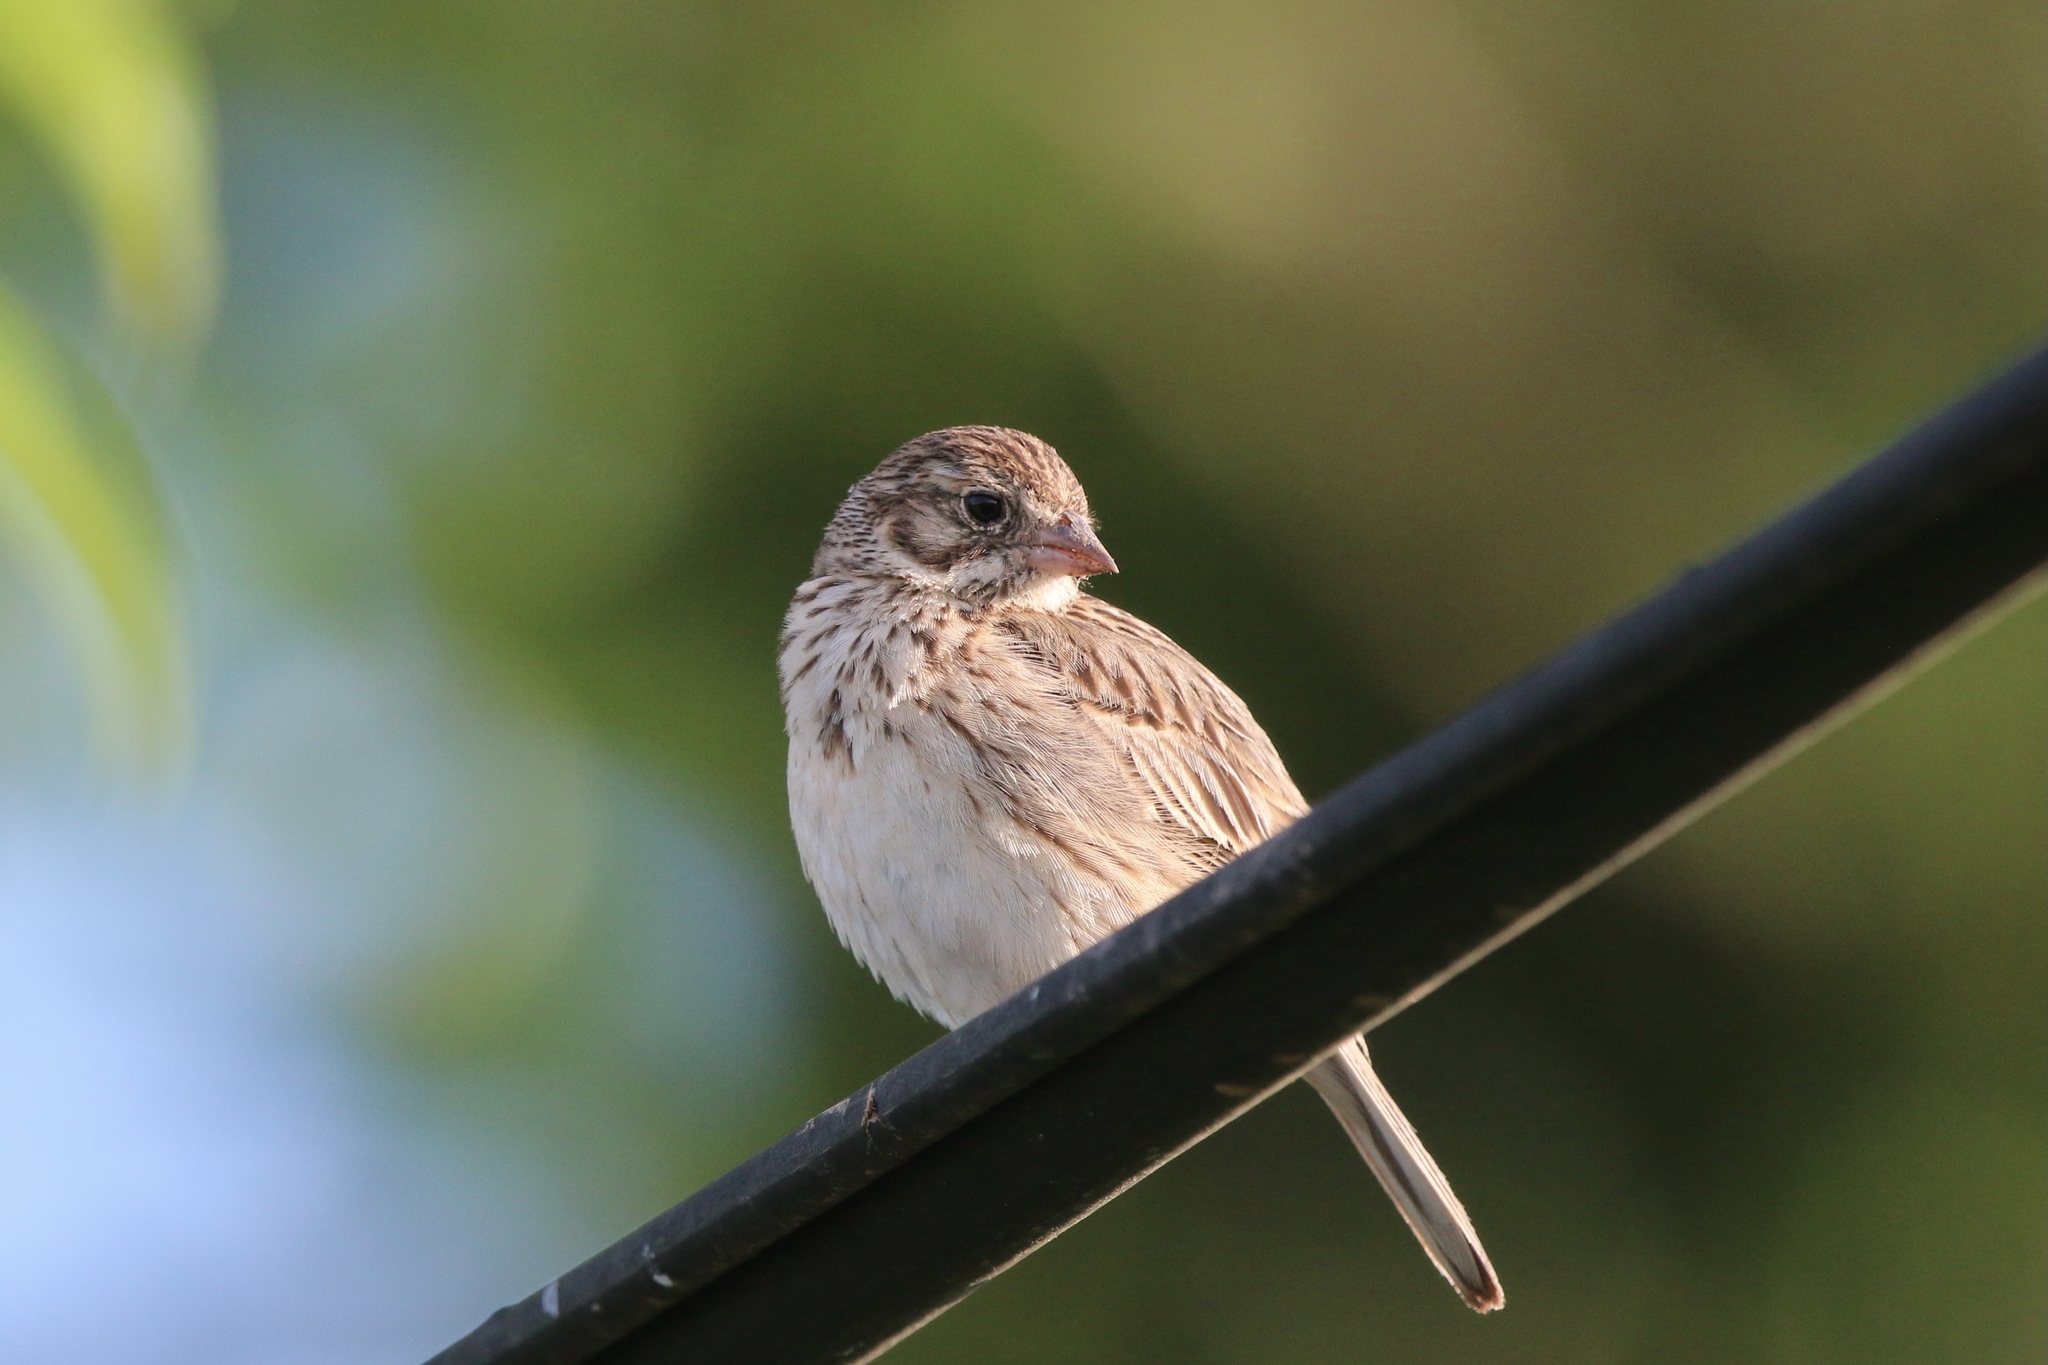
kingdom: Animalia
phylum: Chordata
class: Aves
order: Passeriformes
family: Passerellidae
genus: Pooecetes
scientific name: Pooecetes gramineus
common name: Vesper sparrow
